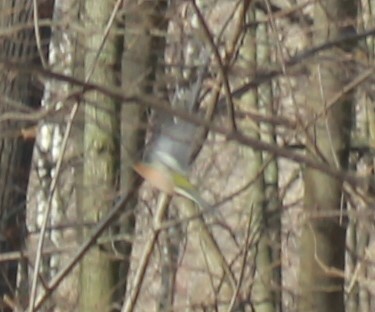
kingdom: Animalia
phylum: Chordata
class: Aves
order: Passeriformes
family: Fringillidae
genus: Fringilla
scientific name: Fringilla coelebs
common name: Common chaffinch
